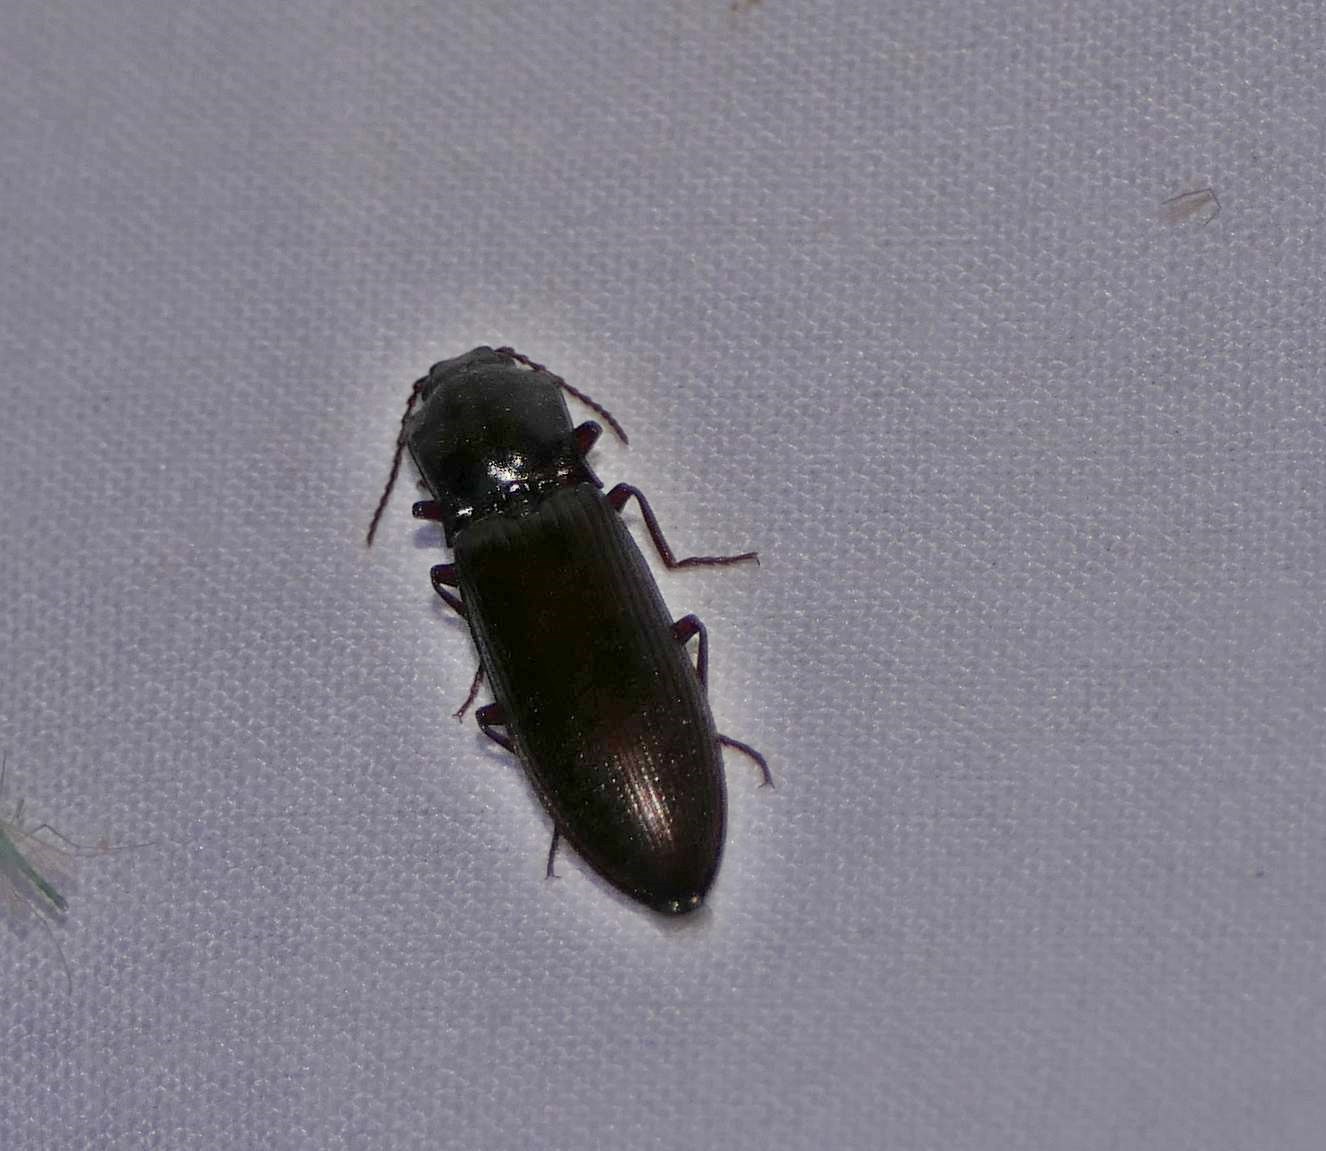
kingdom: Animalia
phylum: Arthropoda
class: Insecta
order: Coleoptera
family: Elateridae
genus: Laneganus
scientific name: Laneganus sulcicollis
